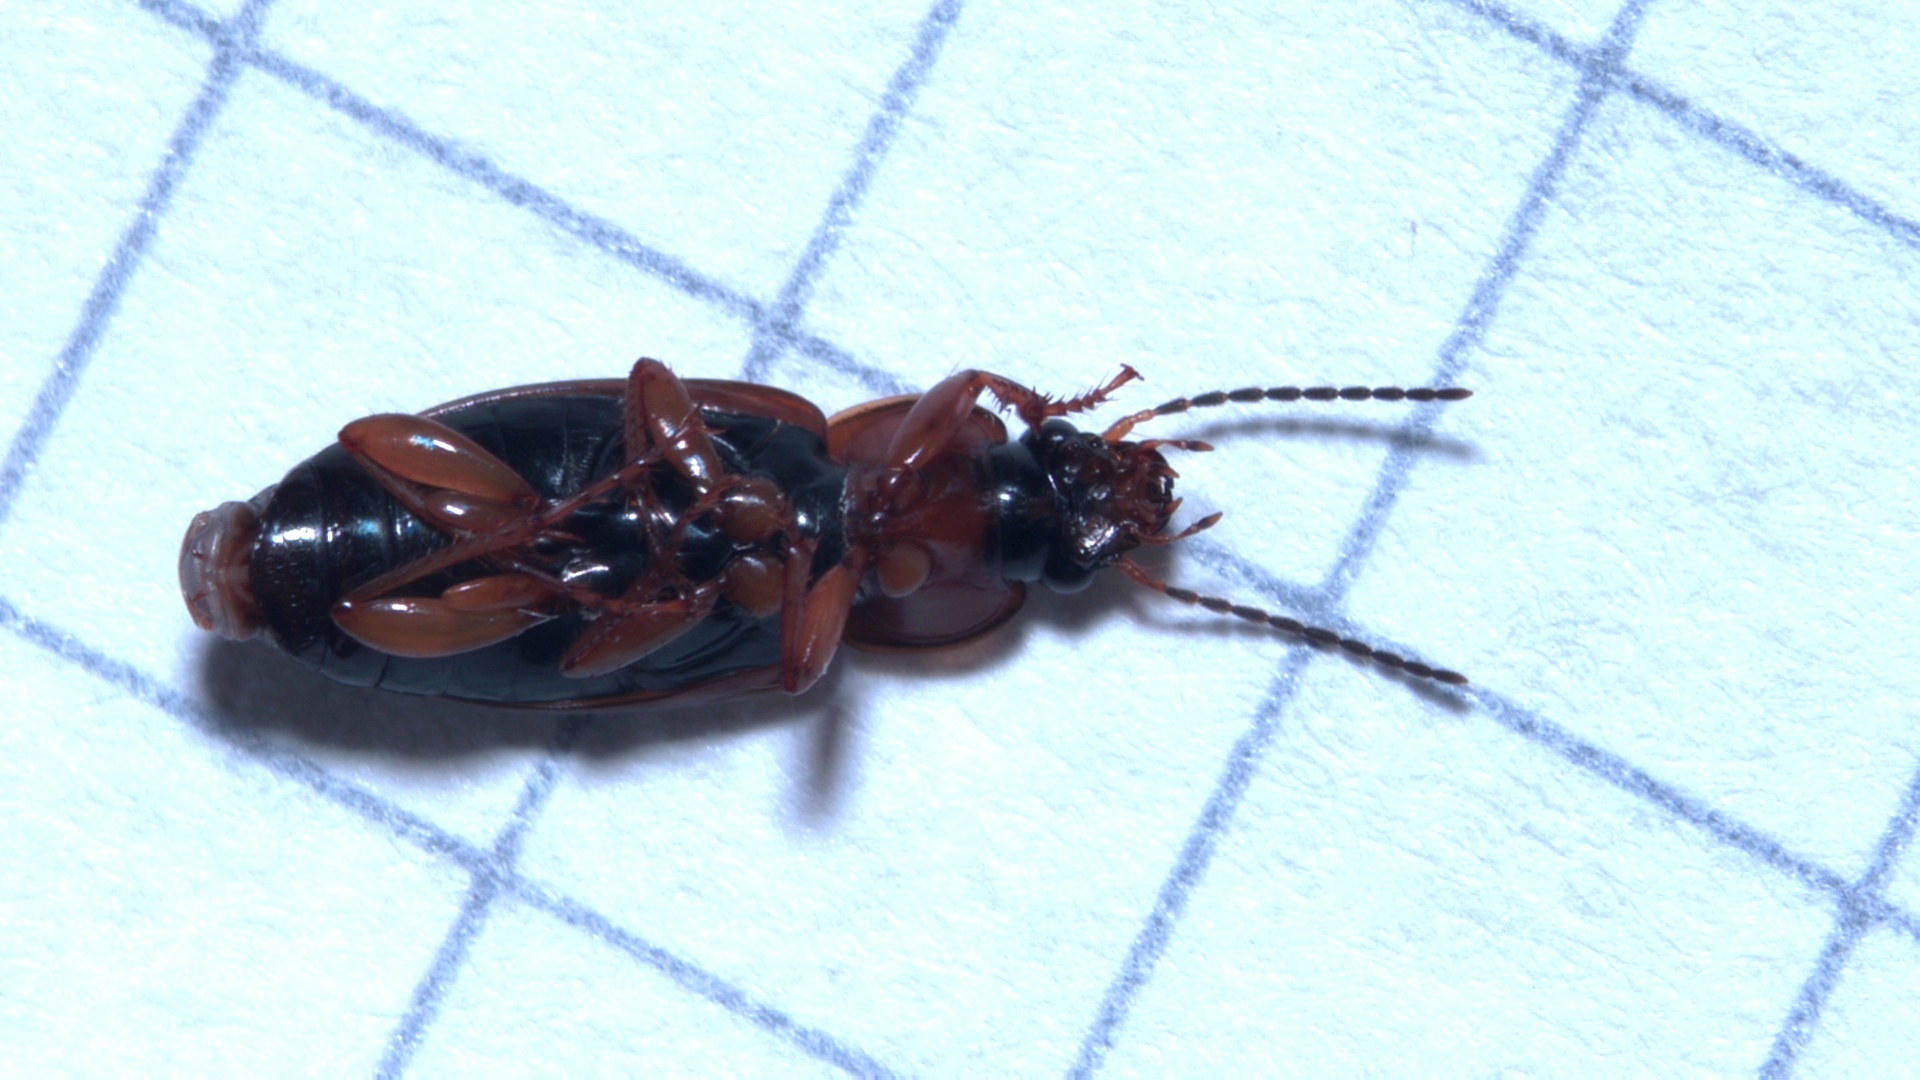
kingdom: Animalia
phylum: Arthropoda
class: Insecta
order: Coleoptera
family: Carabidae
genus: Stenolophus
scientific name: Stenolophus teutonus
